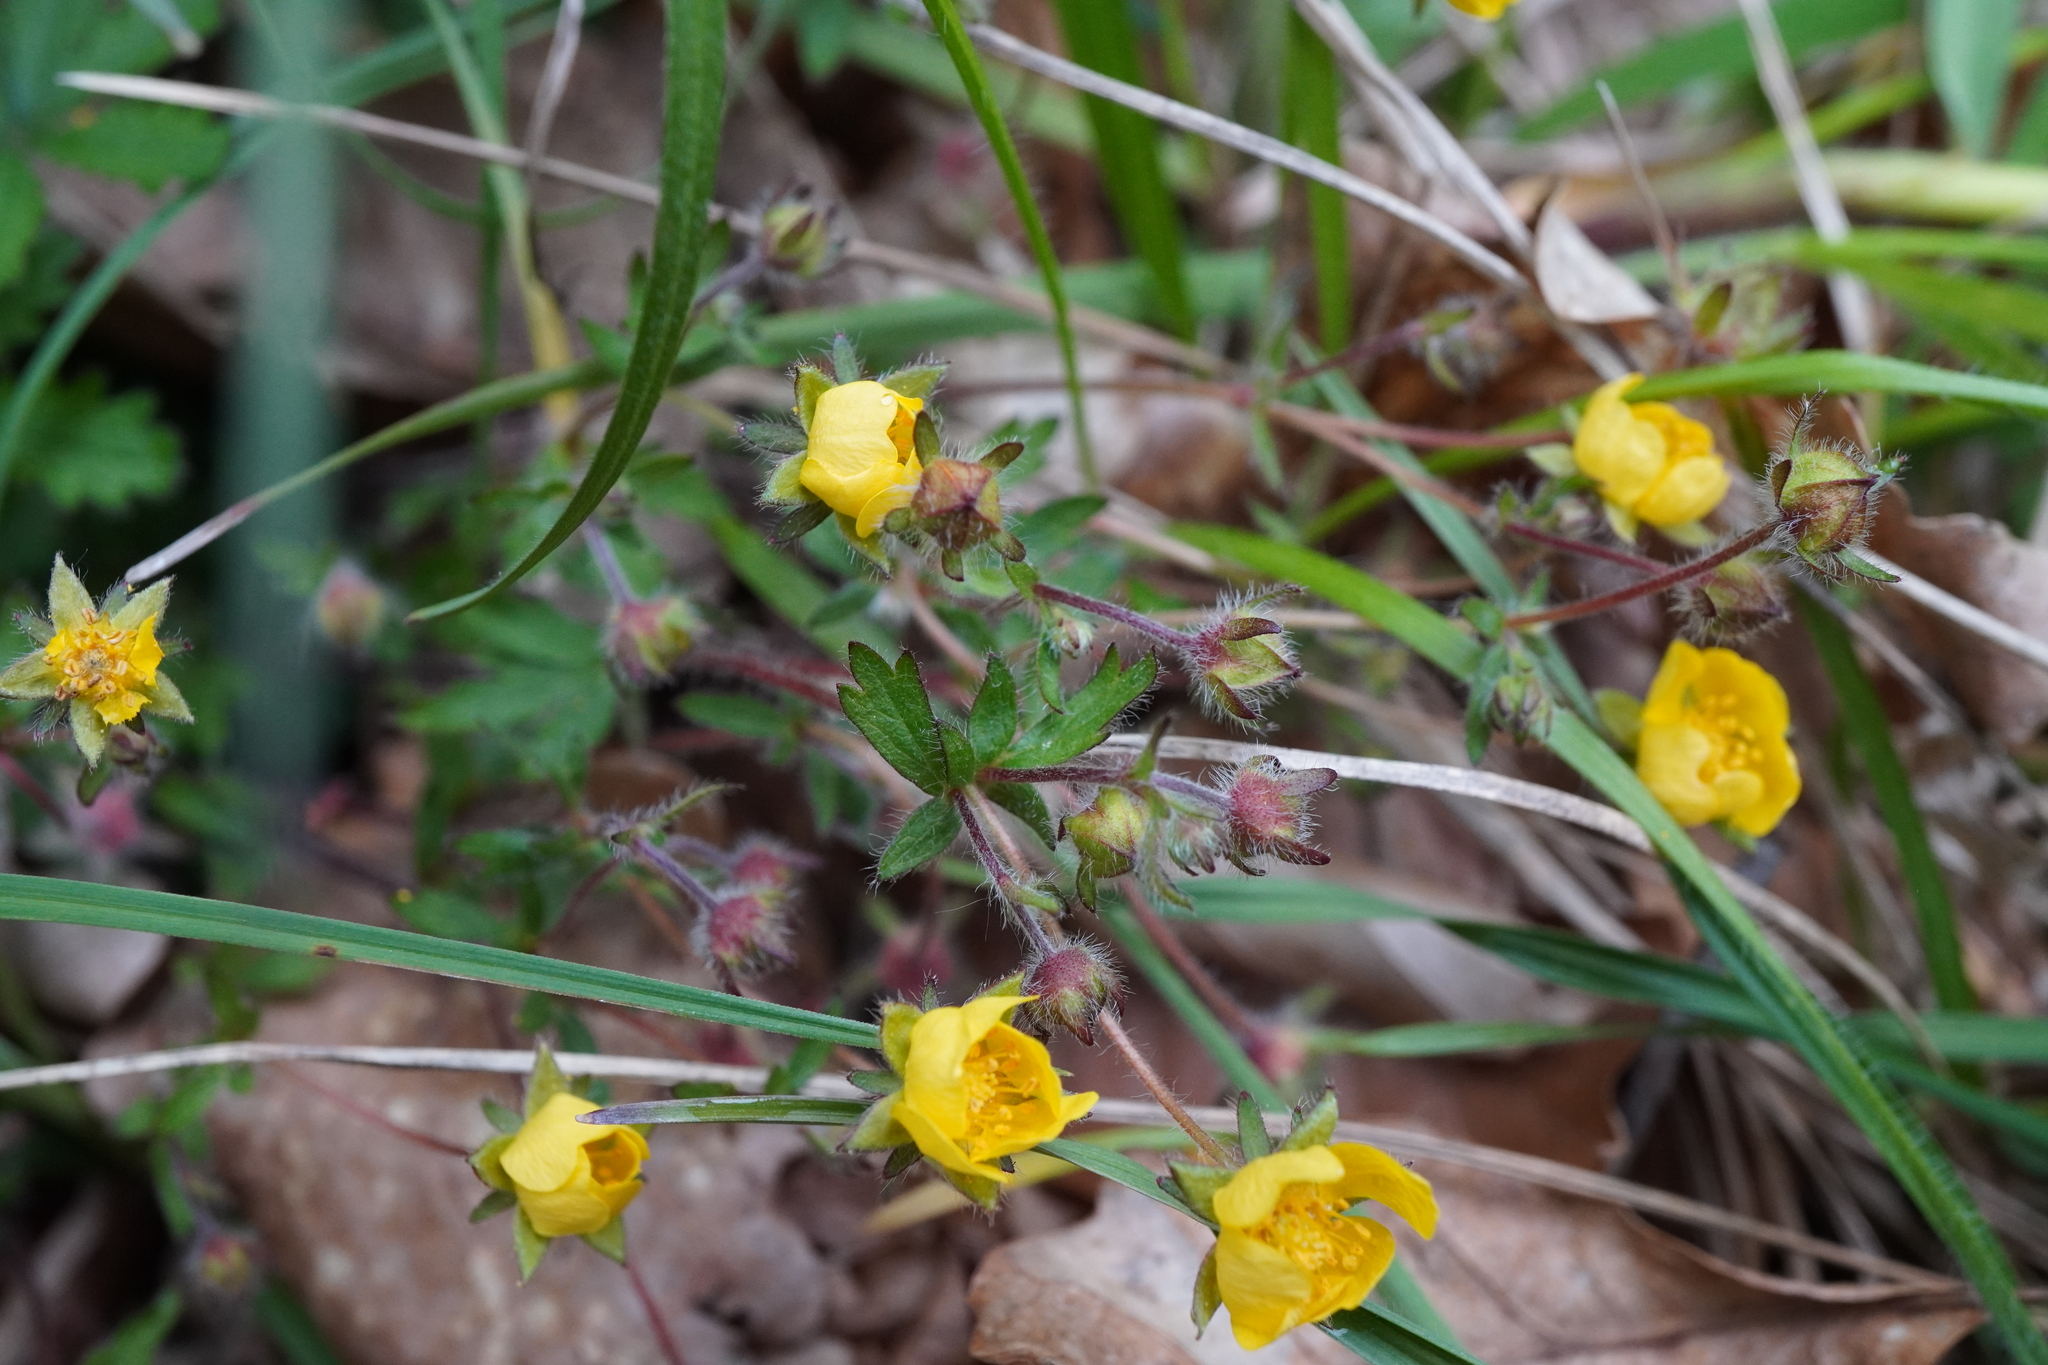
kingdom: Plantae
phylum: Tracheophyta
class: Magnoliopsida
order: Rosales
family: Rosaceae
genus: Potentilla
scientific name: Potentilla heptaphylla
